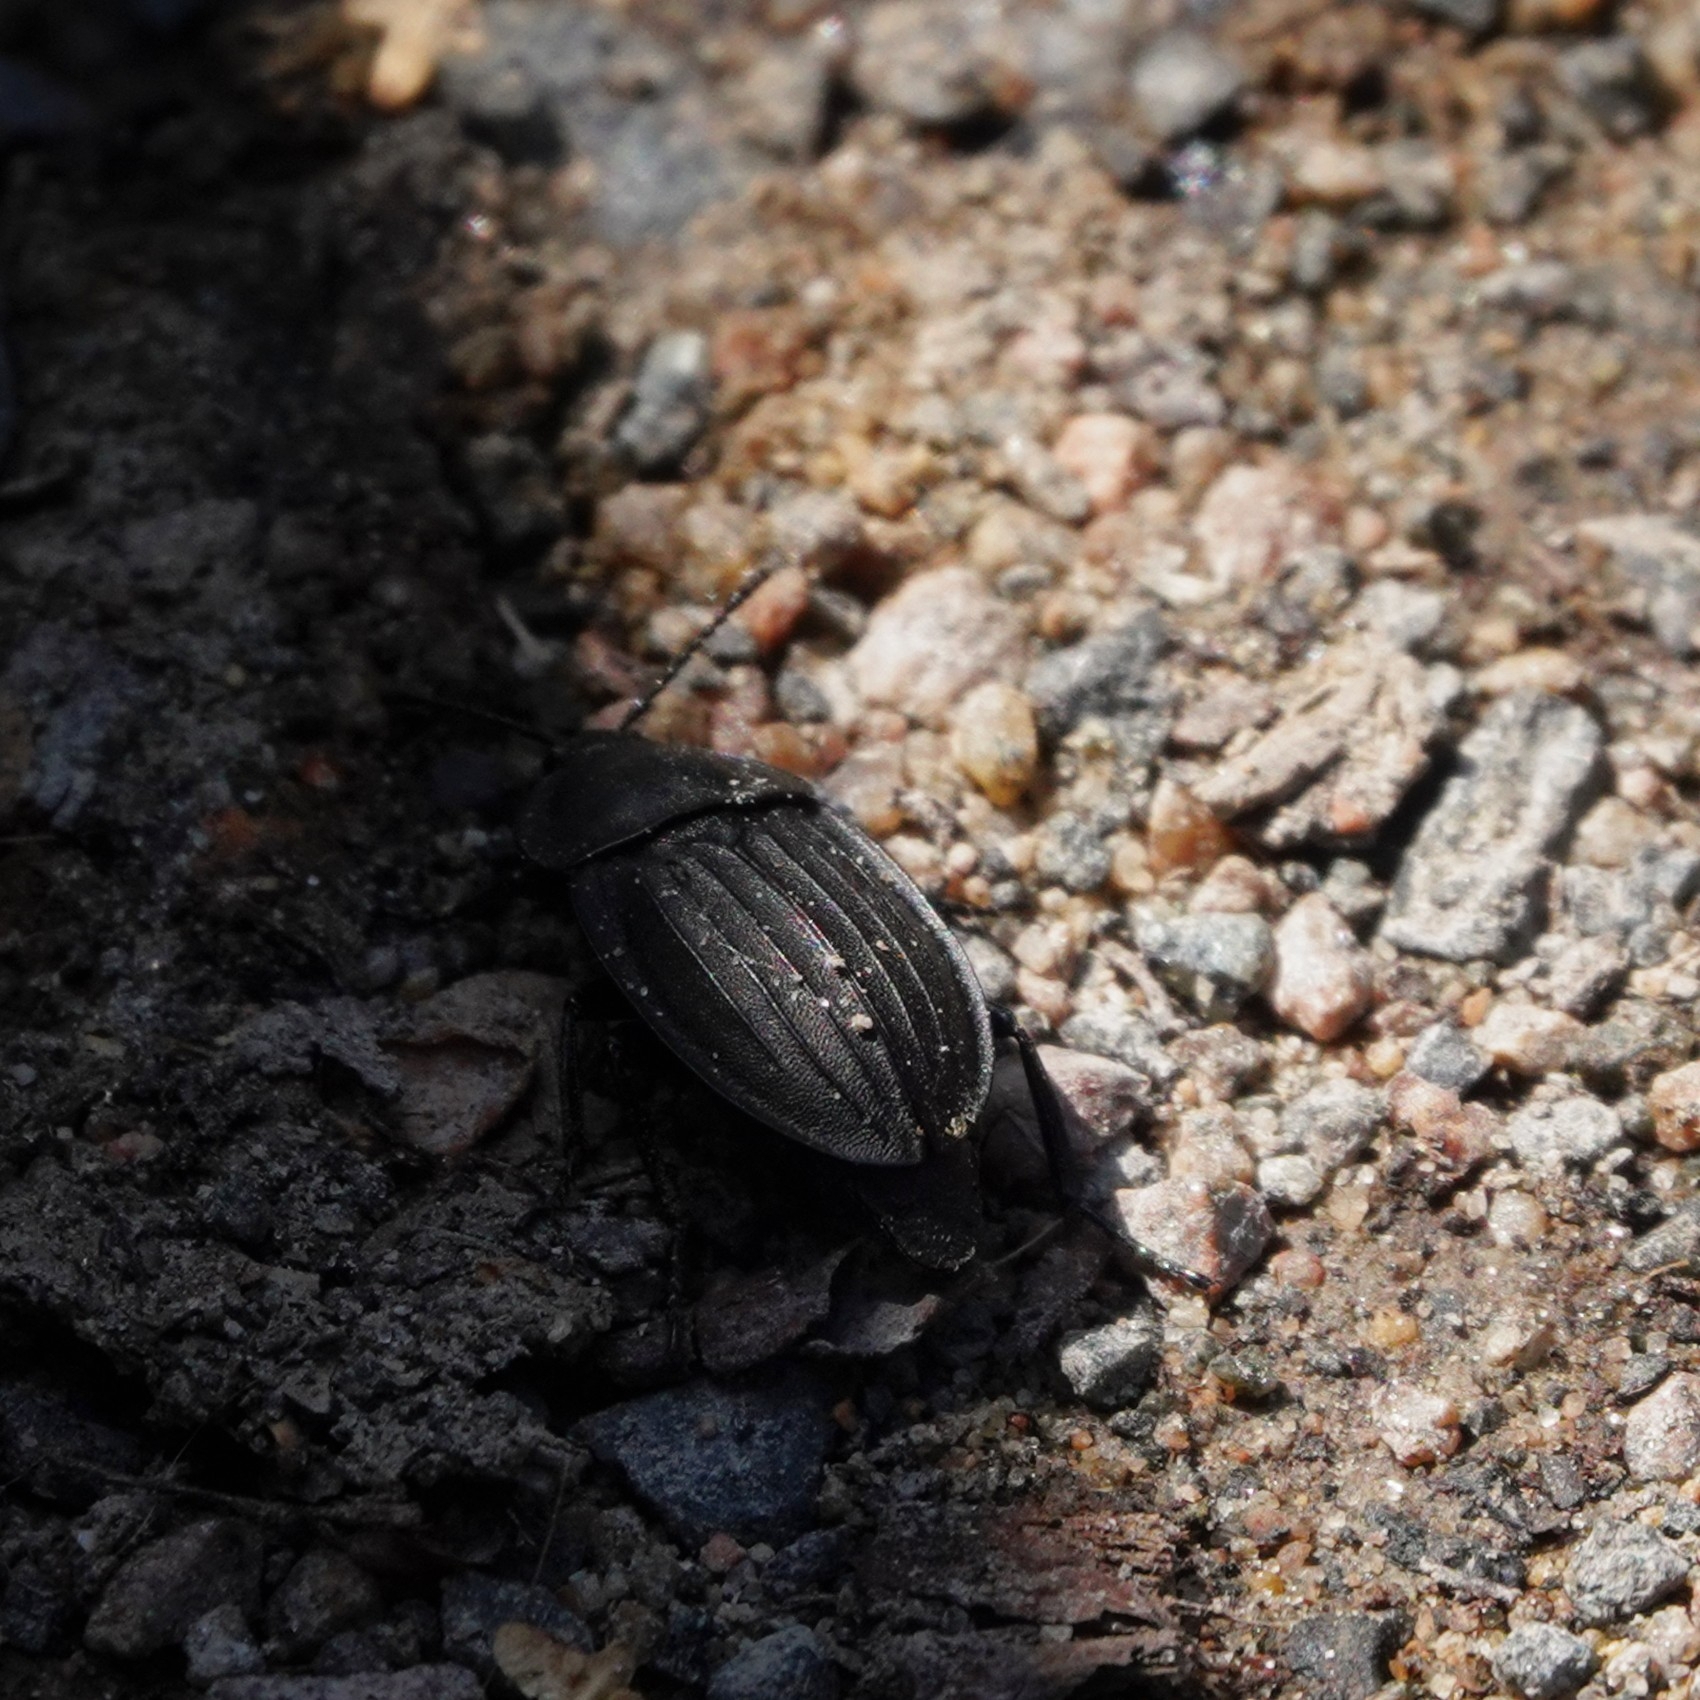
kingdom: Animalia
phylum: Arthropoda
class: Insecta
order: Coleoptera
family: Staphylinidae
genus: Silpha
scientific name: Silpha carinata
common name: Silphid beetle
